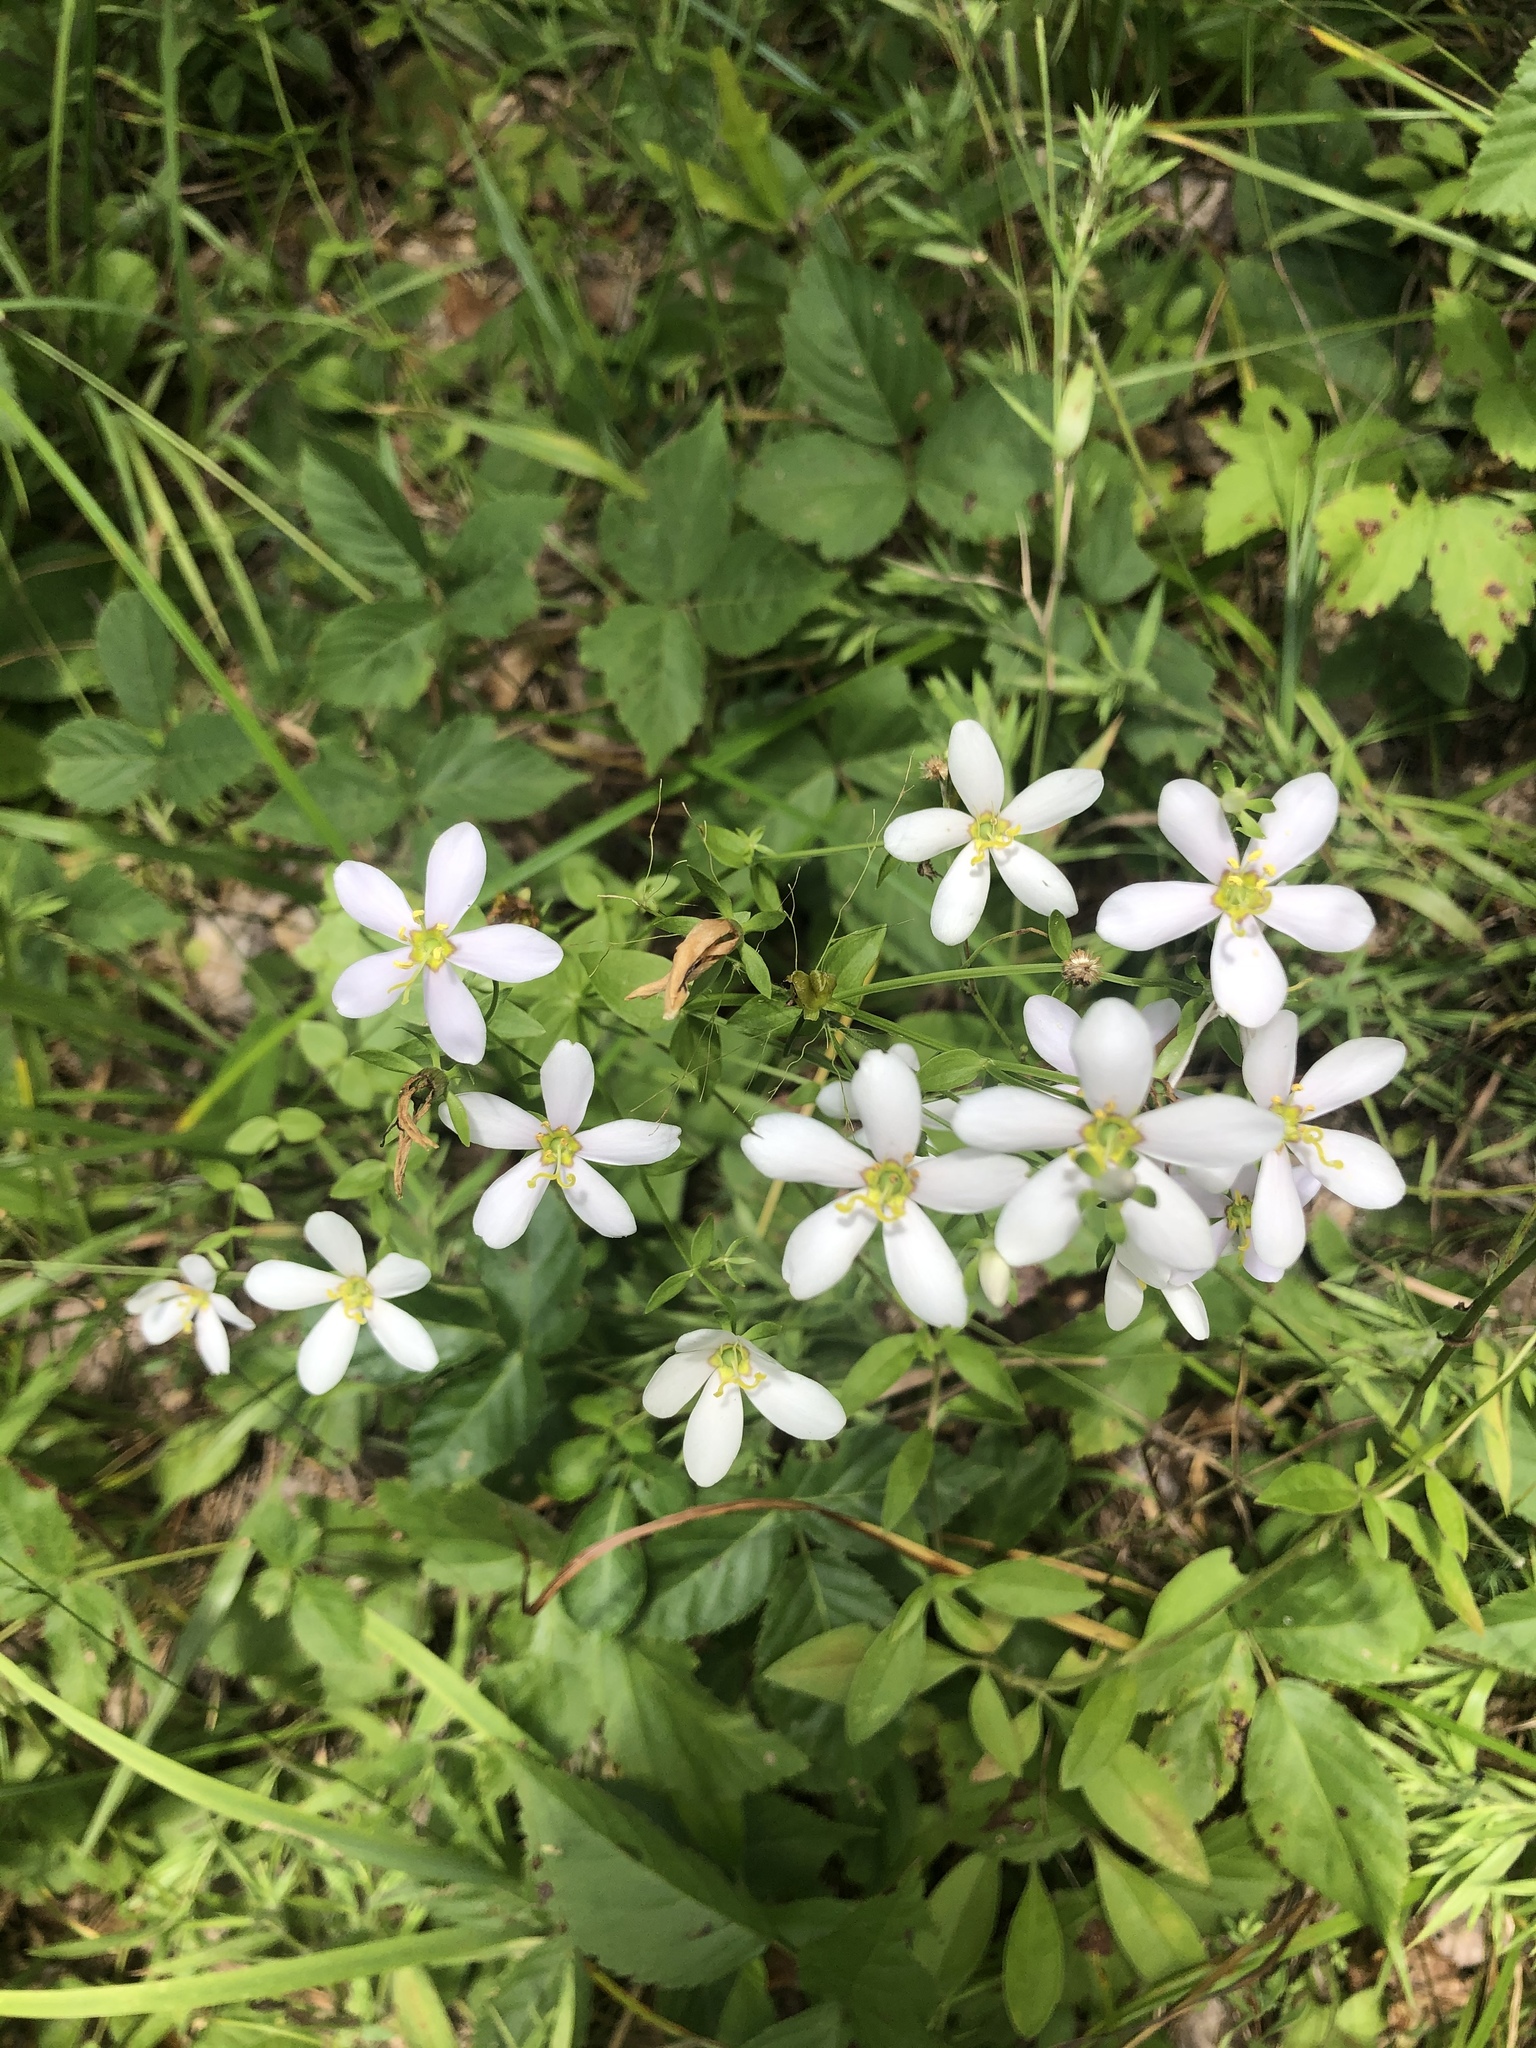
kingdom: Plantae
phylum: Tracheophyta
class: Magnoliopsida
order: Gentianales
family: Gentianaceae
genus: Sabatia
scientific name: Sabatia angularis
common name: Rose-pink
